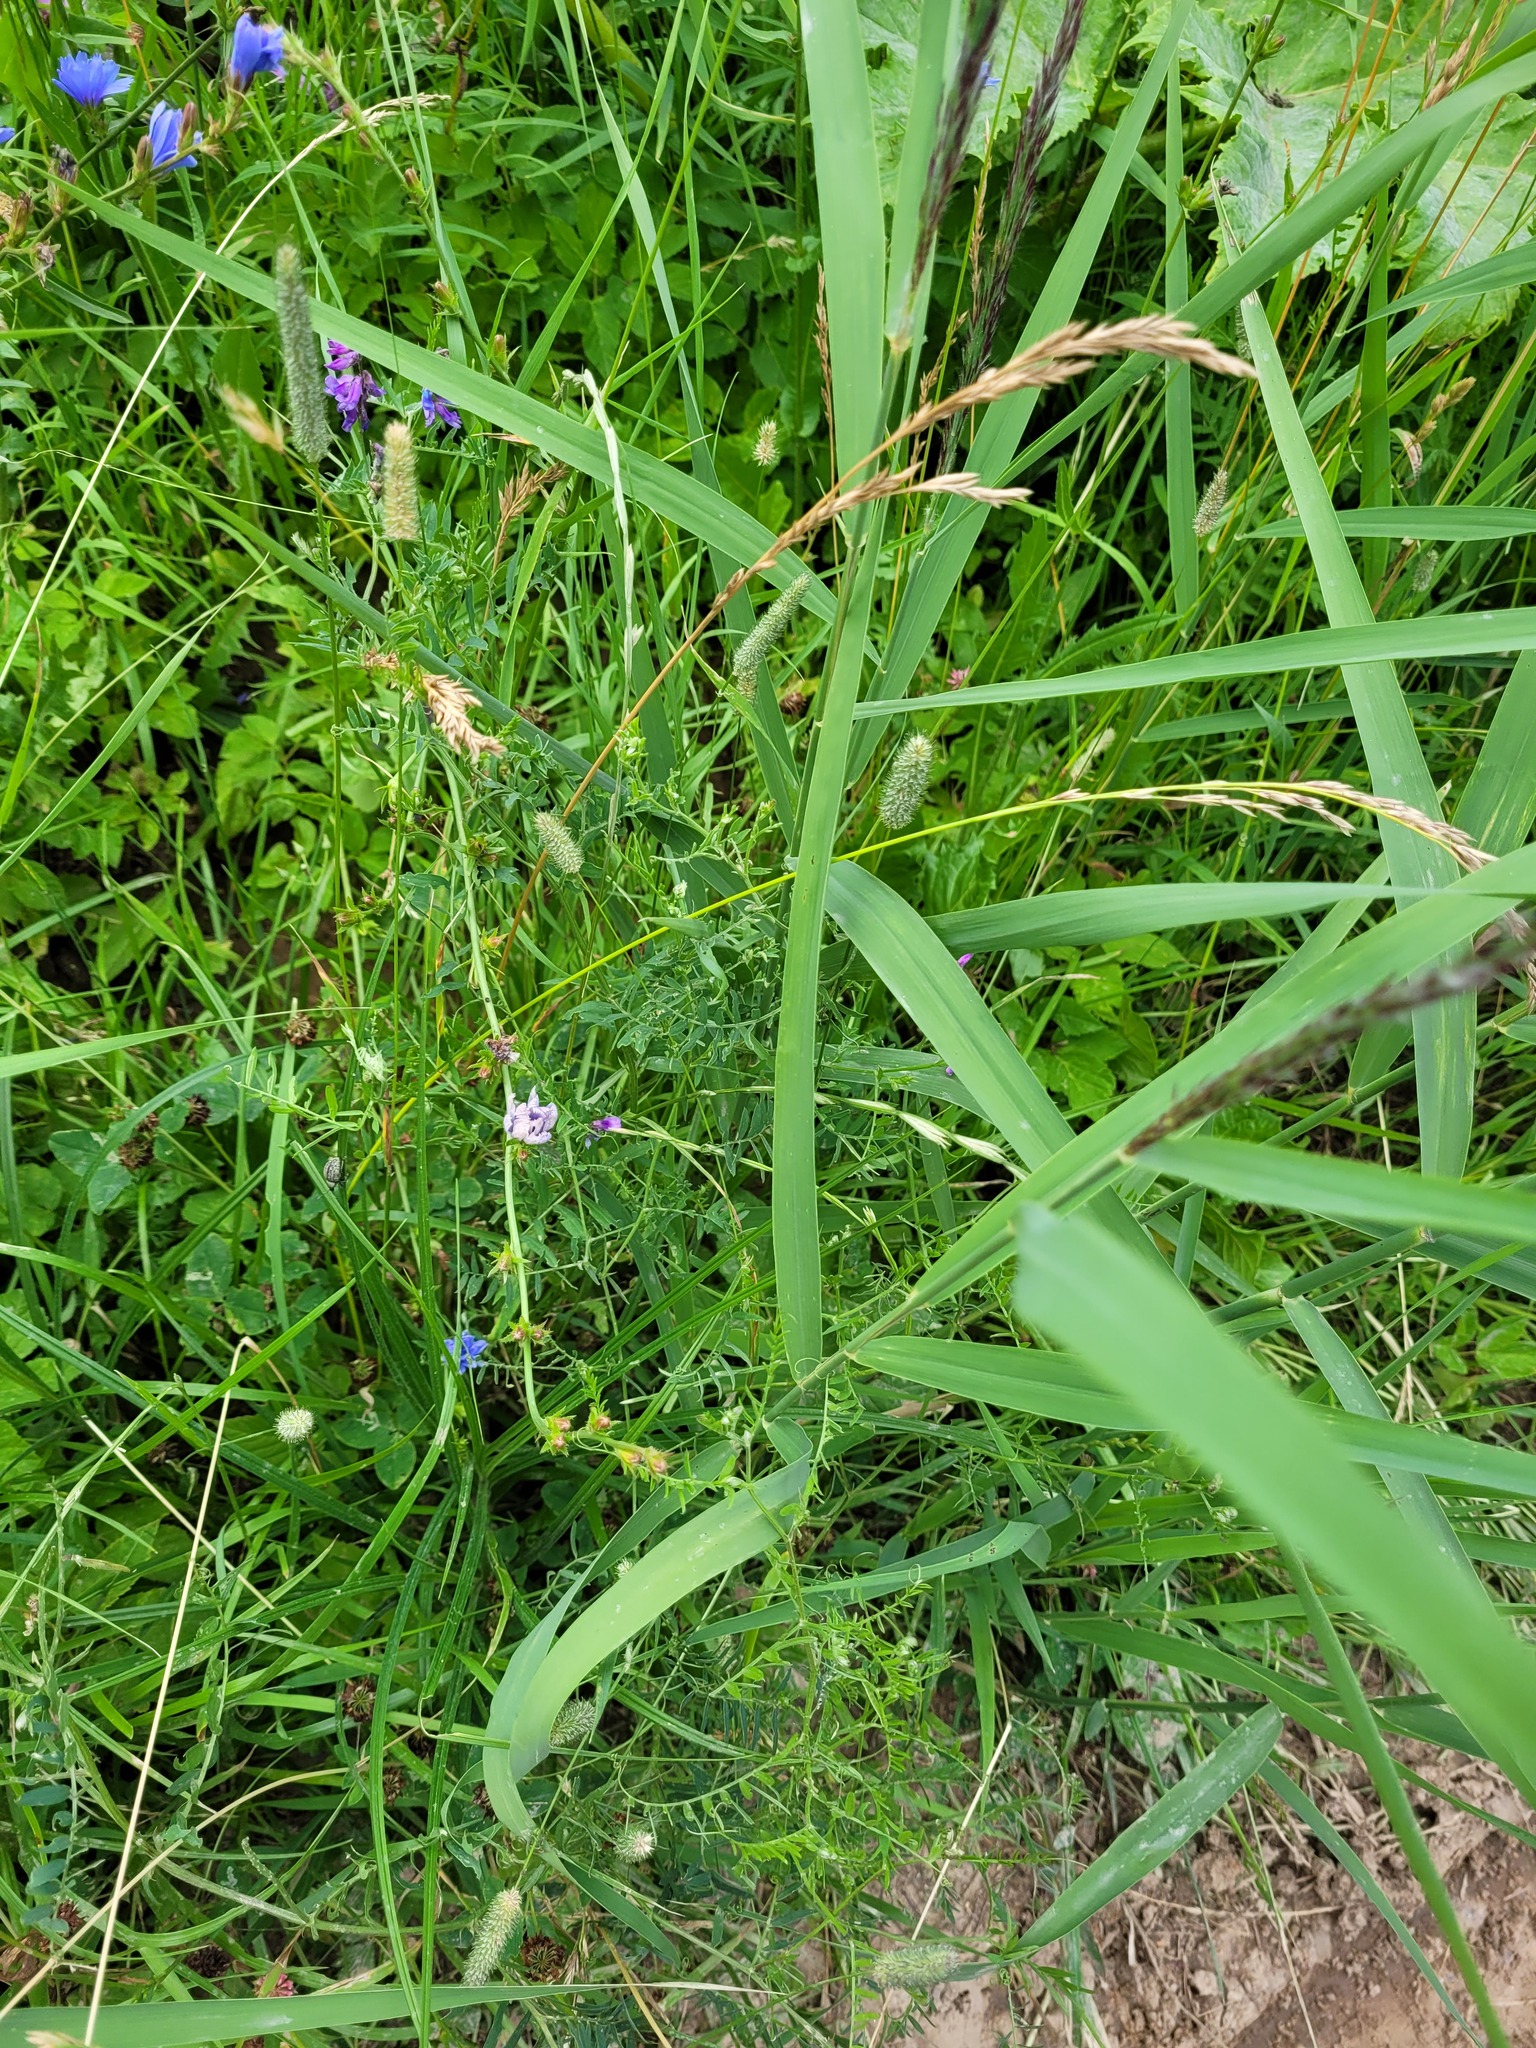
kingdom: Plantae
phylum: Tracheophyta
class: Magnoliopsida
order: Fabales
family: Fabaceae
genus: Vicia
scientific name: Vicia cracca
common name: Bird vetch
